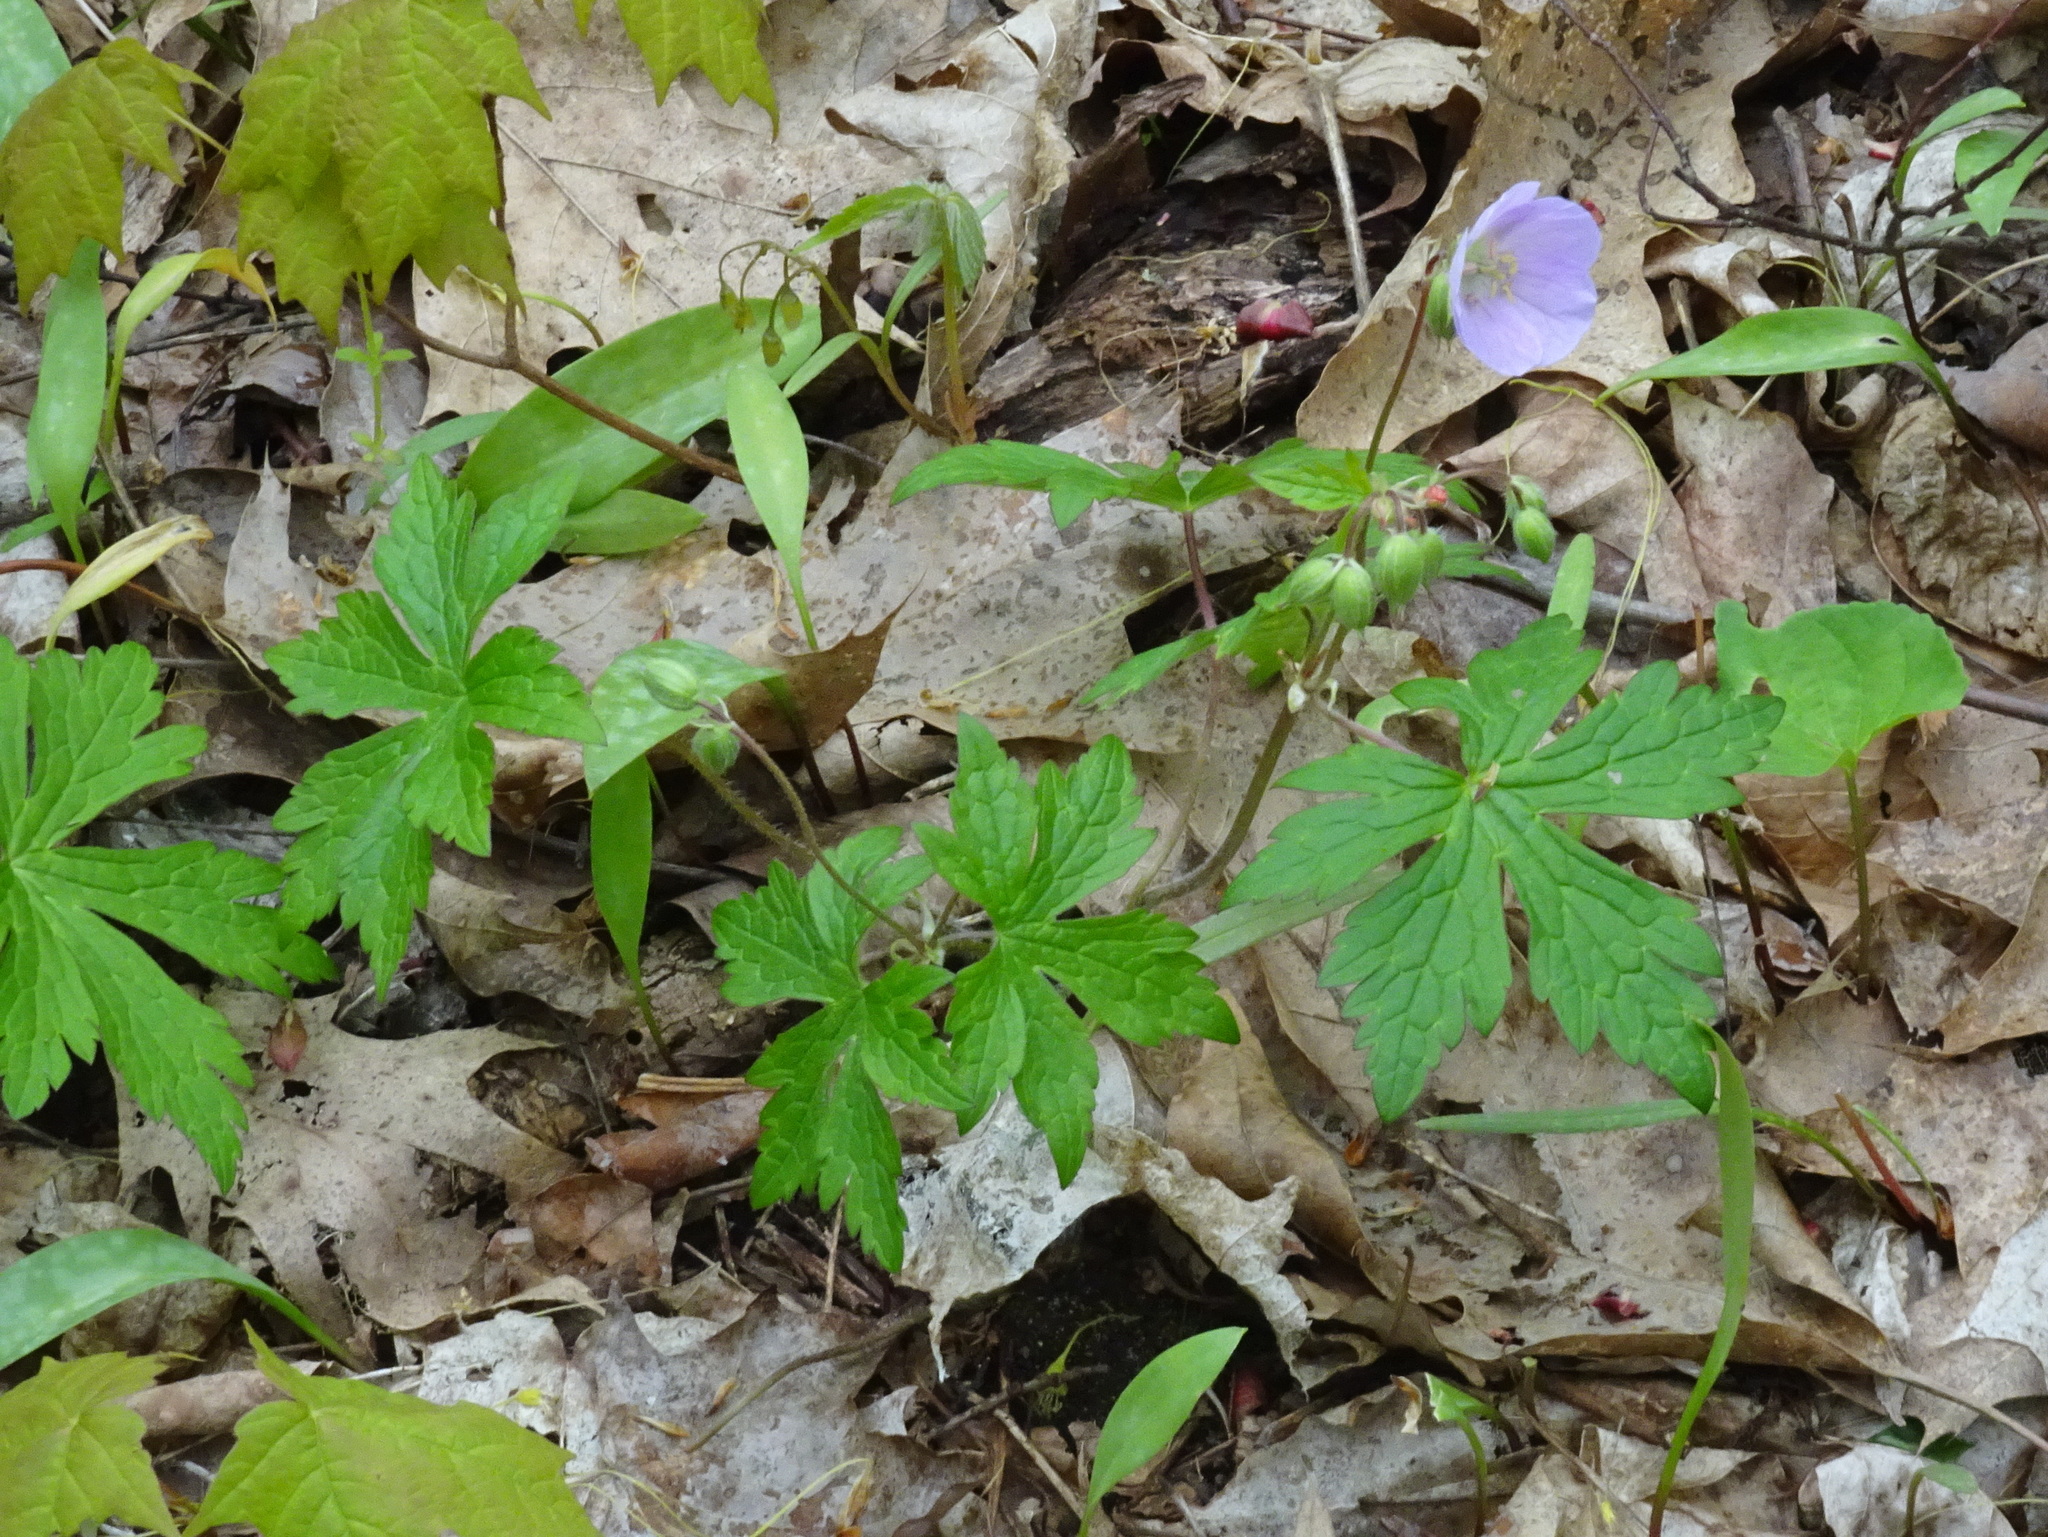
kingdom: Plantae
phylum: Tracheophyta
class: Magnoliopsida
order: Geraniales
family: Geraniaceae
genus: Geranium
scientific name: Geranium maculatum
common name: Spotted geranium
